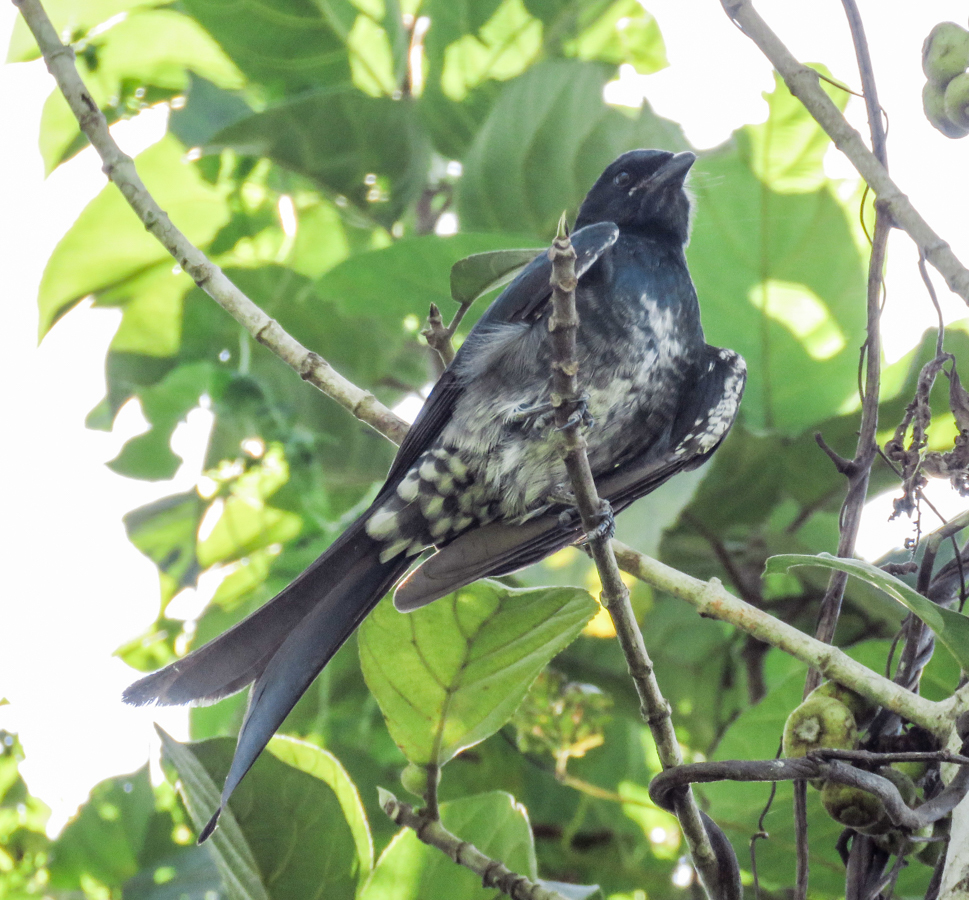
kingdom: Animalia
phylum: Chordata
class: Aves
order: Passeriformes
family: Dicruridae
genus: Dicrurus
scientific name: Dicrurus macrocercus
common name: Black drongo
